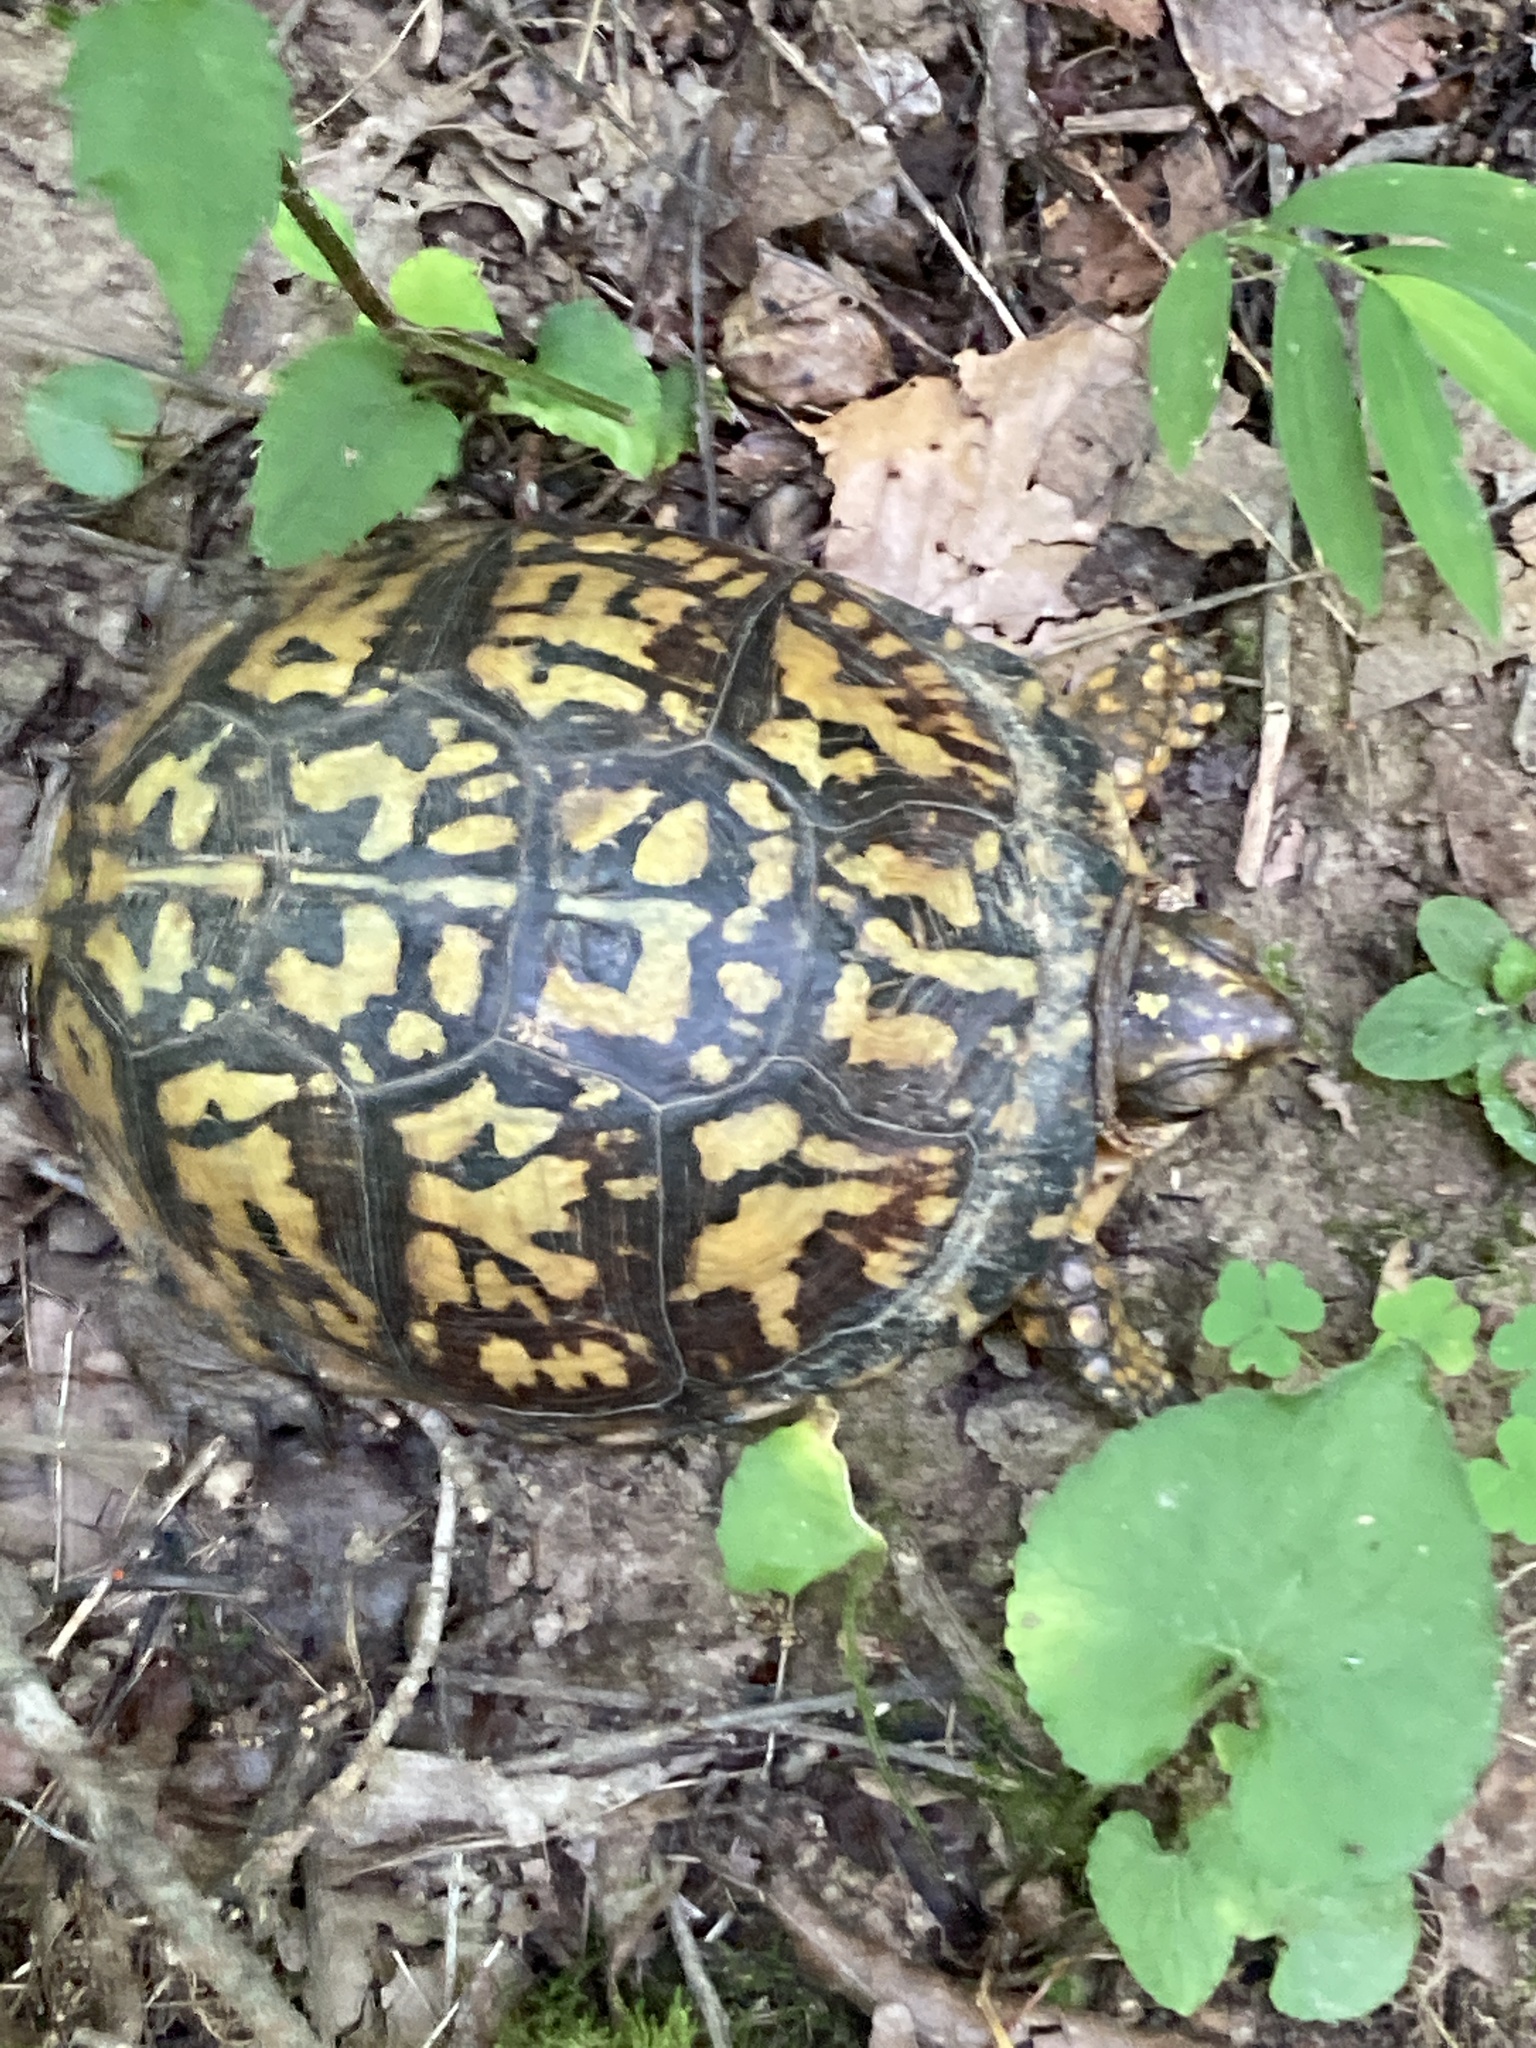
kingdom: Animalia
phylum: Chordata
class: Testudines
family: Emydidae
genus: Terrapene
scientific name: Terrapene carolina
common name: Common box turtle
